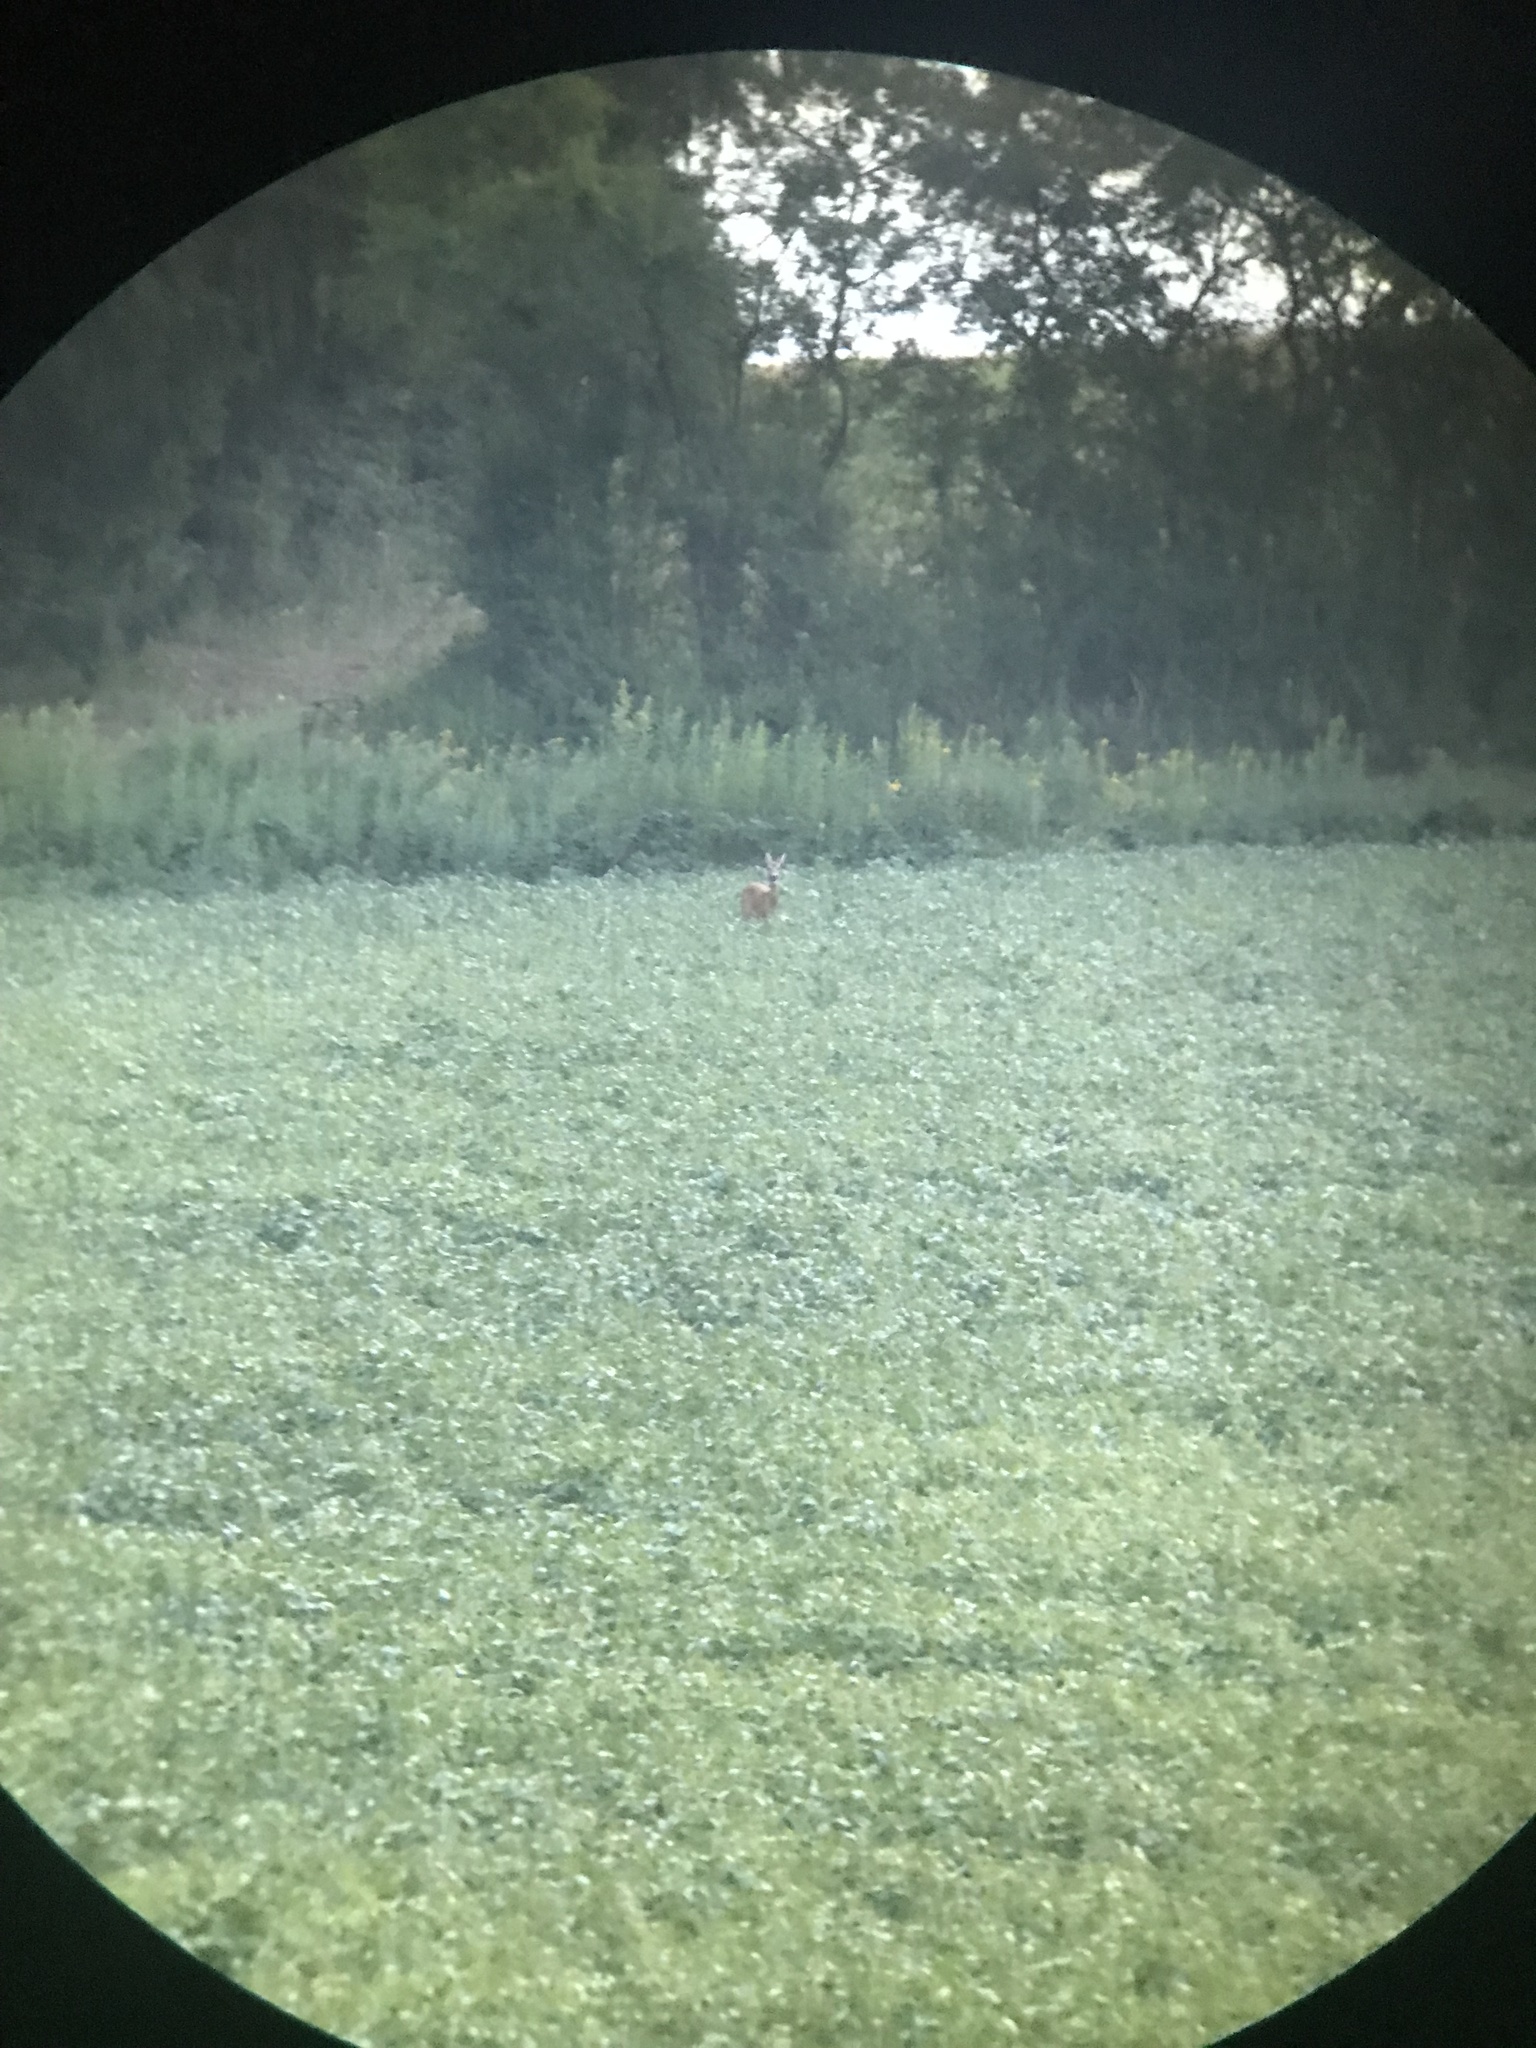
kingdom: Animalia
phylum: Chordata
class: Mammalia
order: Artiodactyla
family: Cervidae
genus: Capreolus
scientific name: Capreolus capreolus
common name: Western roe deer
